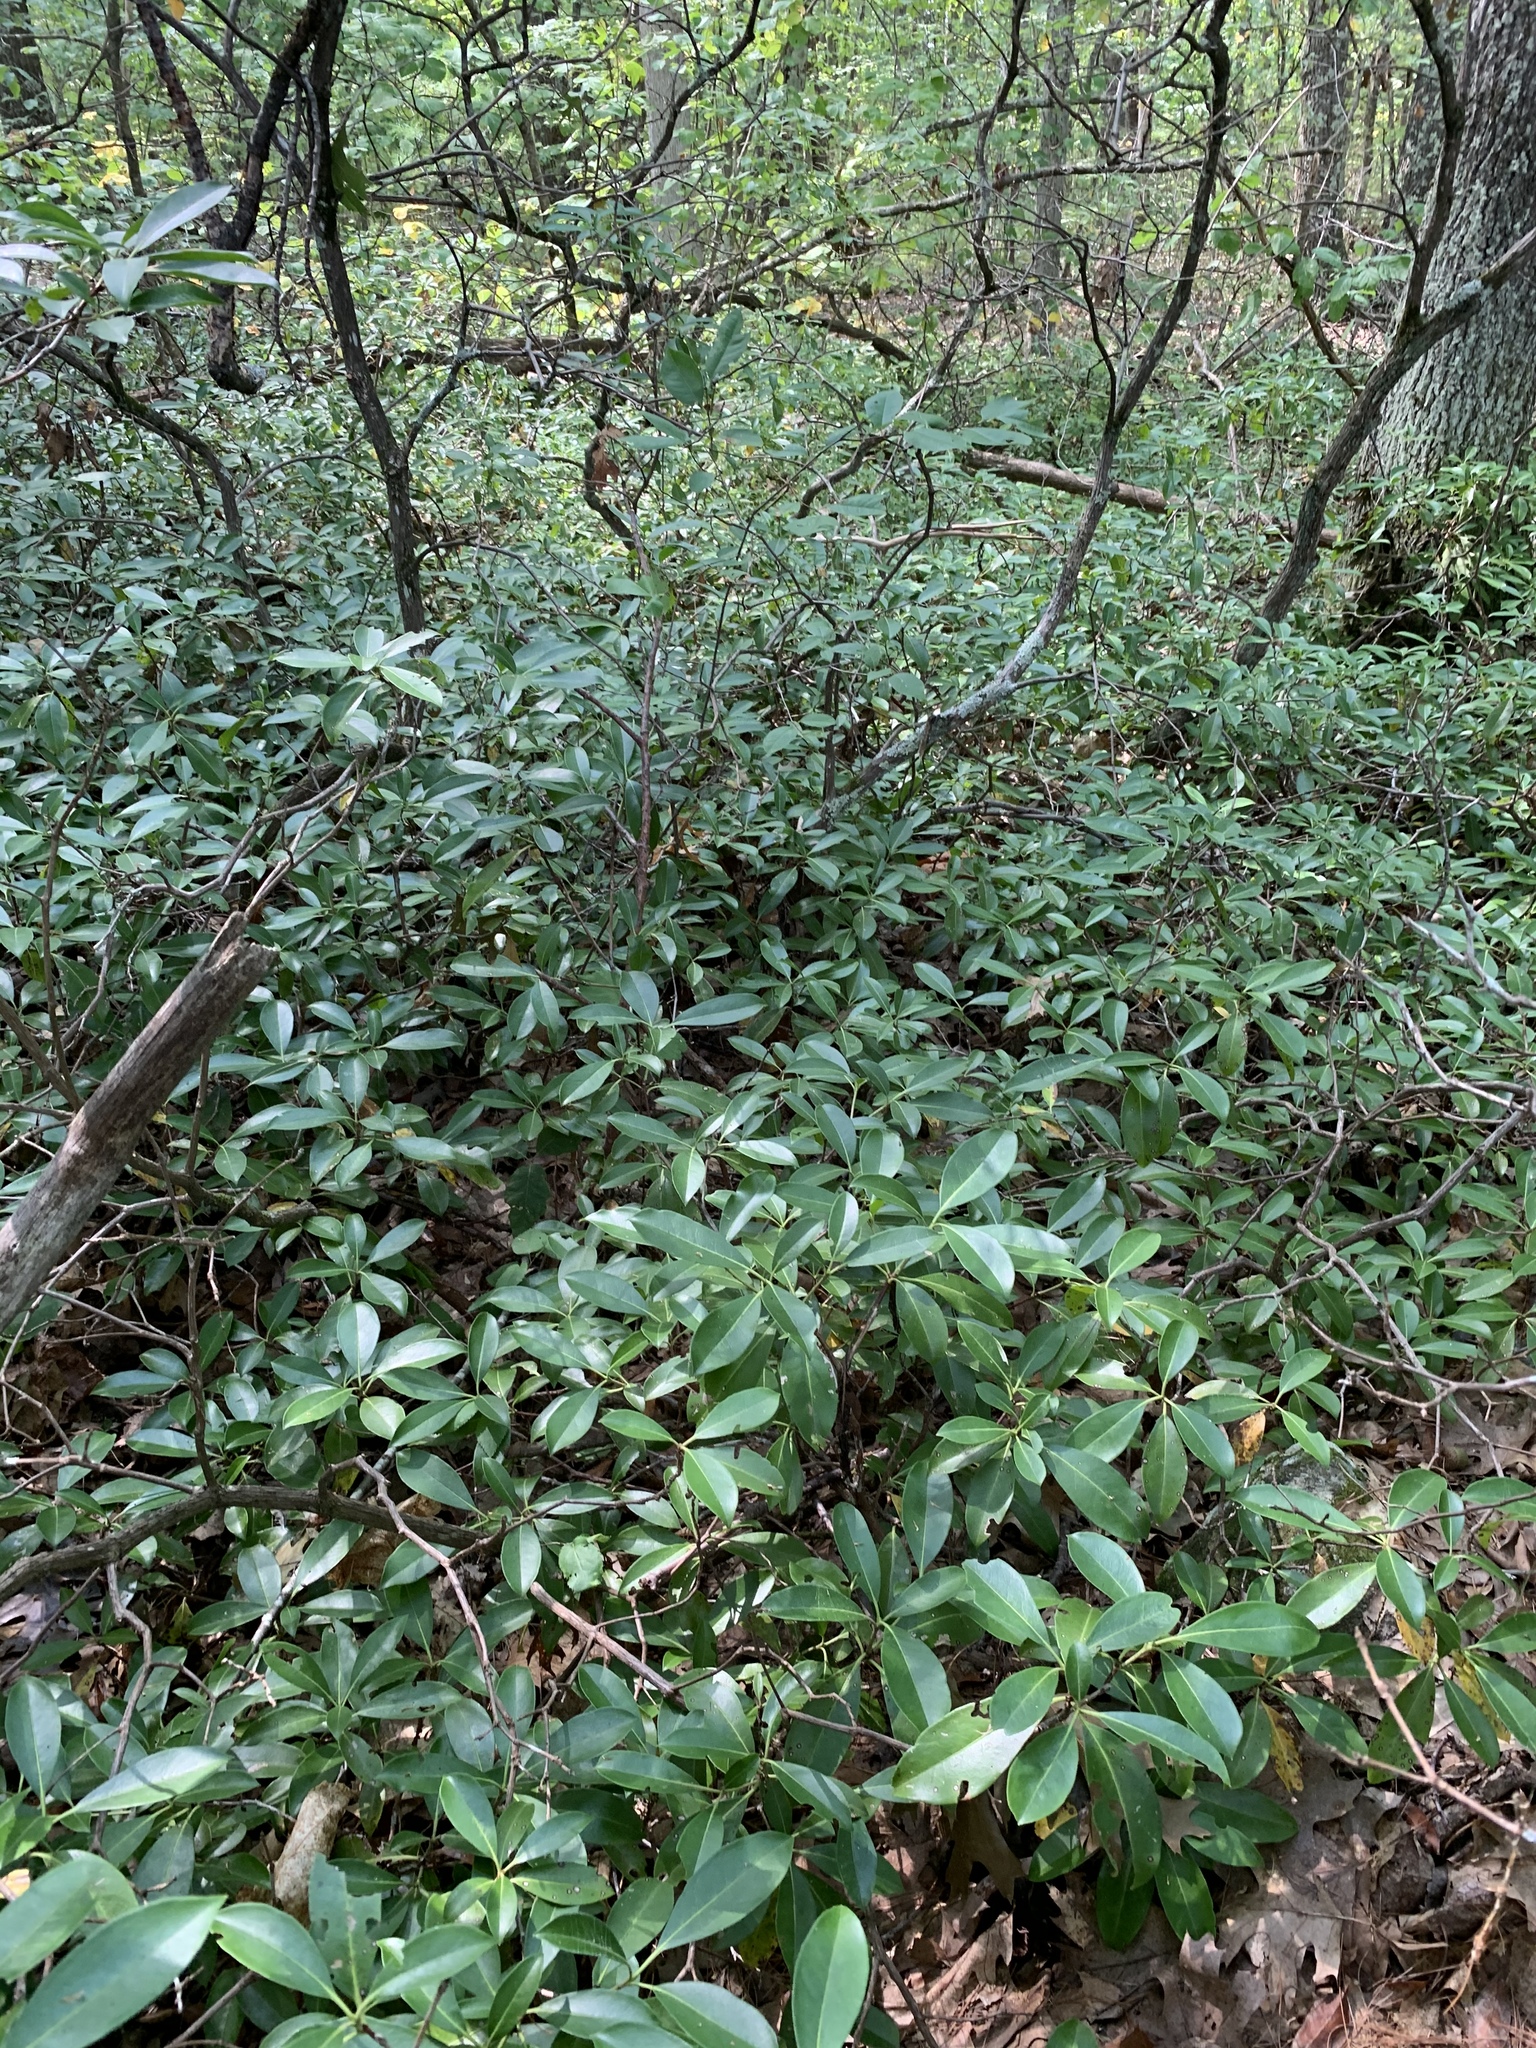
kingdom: Plantae
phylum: Tracheophyta
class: Magnoliopsida
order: Ericales
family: Ericaceae
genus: Kalmia
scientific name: Kalmia latifolia
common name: Mountain-laurel
